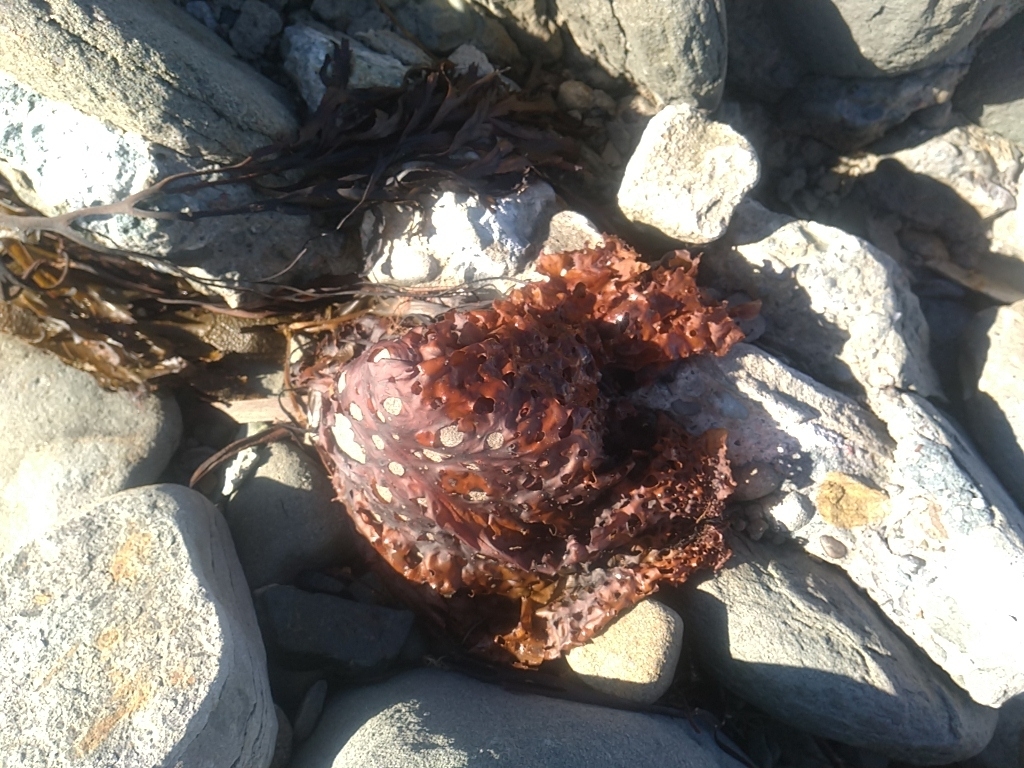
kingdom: Chromista
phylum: Ochrophyta
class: Phaeophyceae
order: Laminariales
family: Costariaceae
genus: Agarum
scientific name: Agarum clathratum
